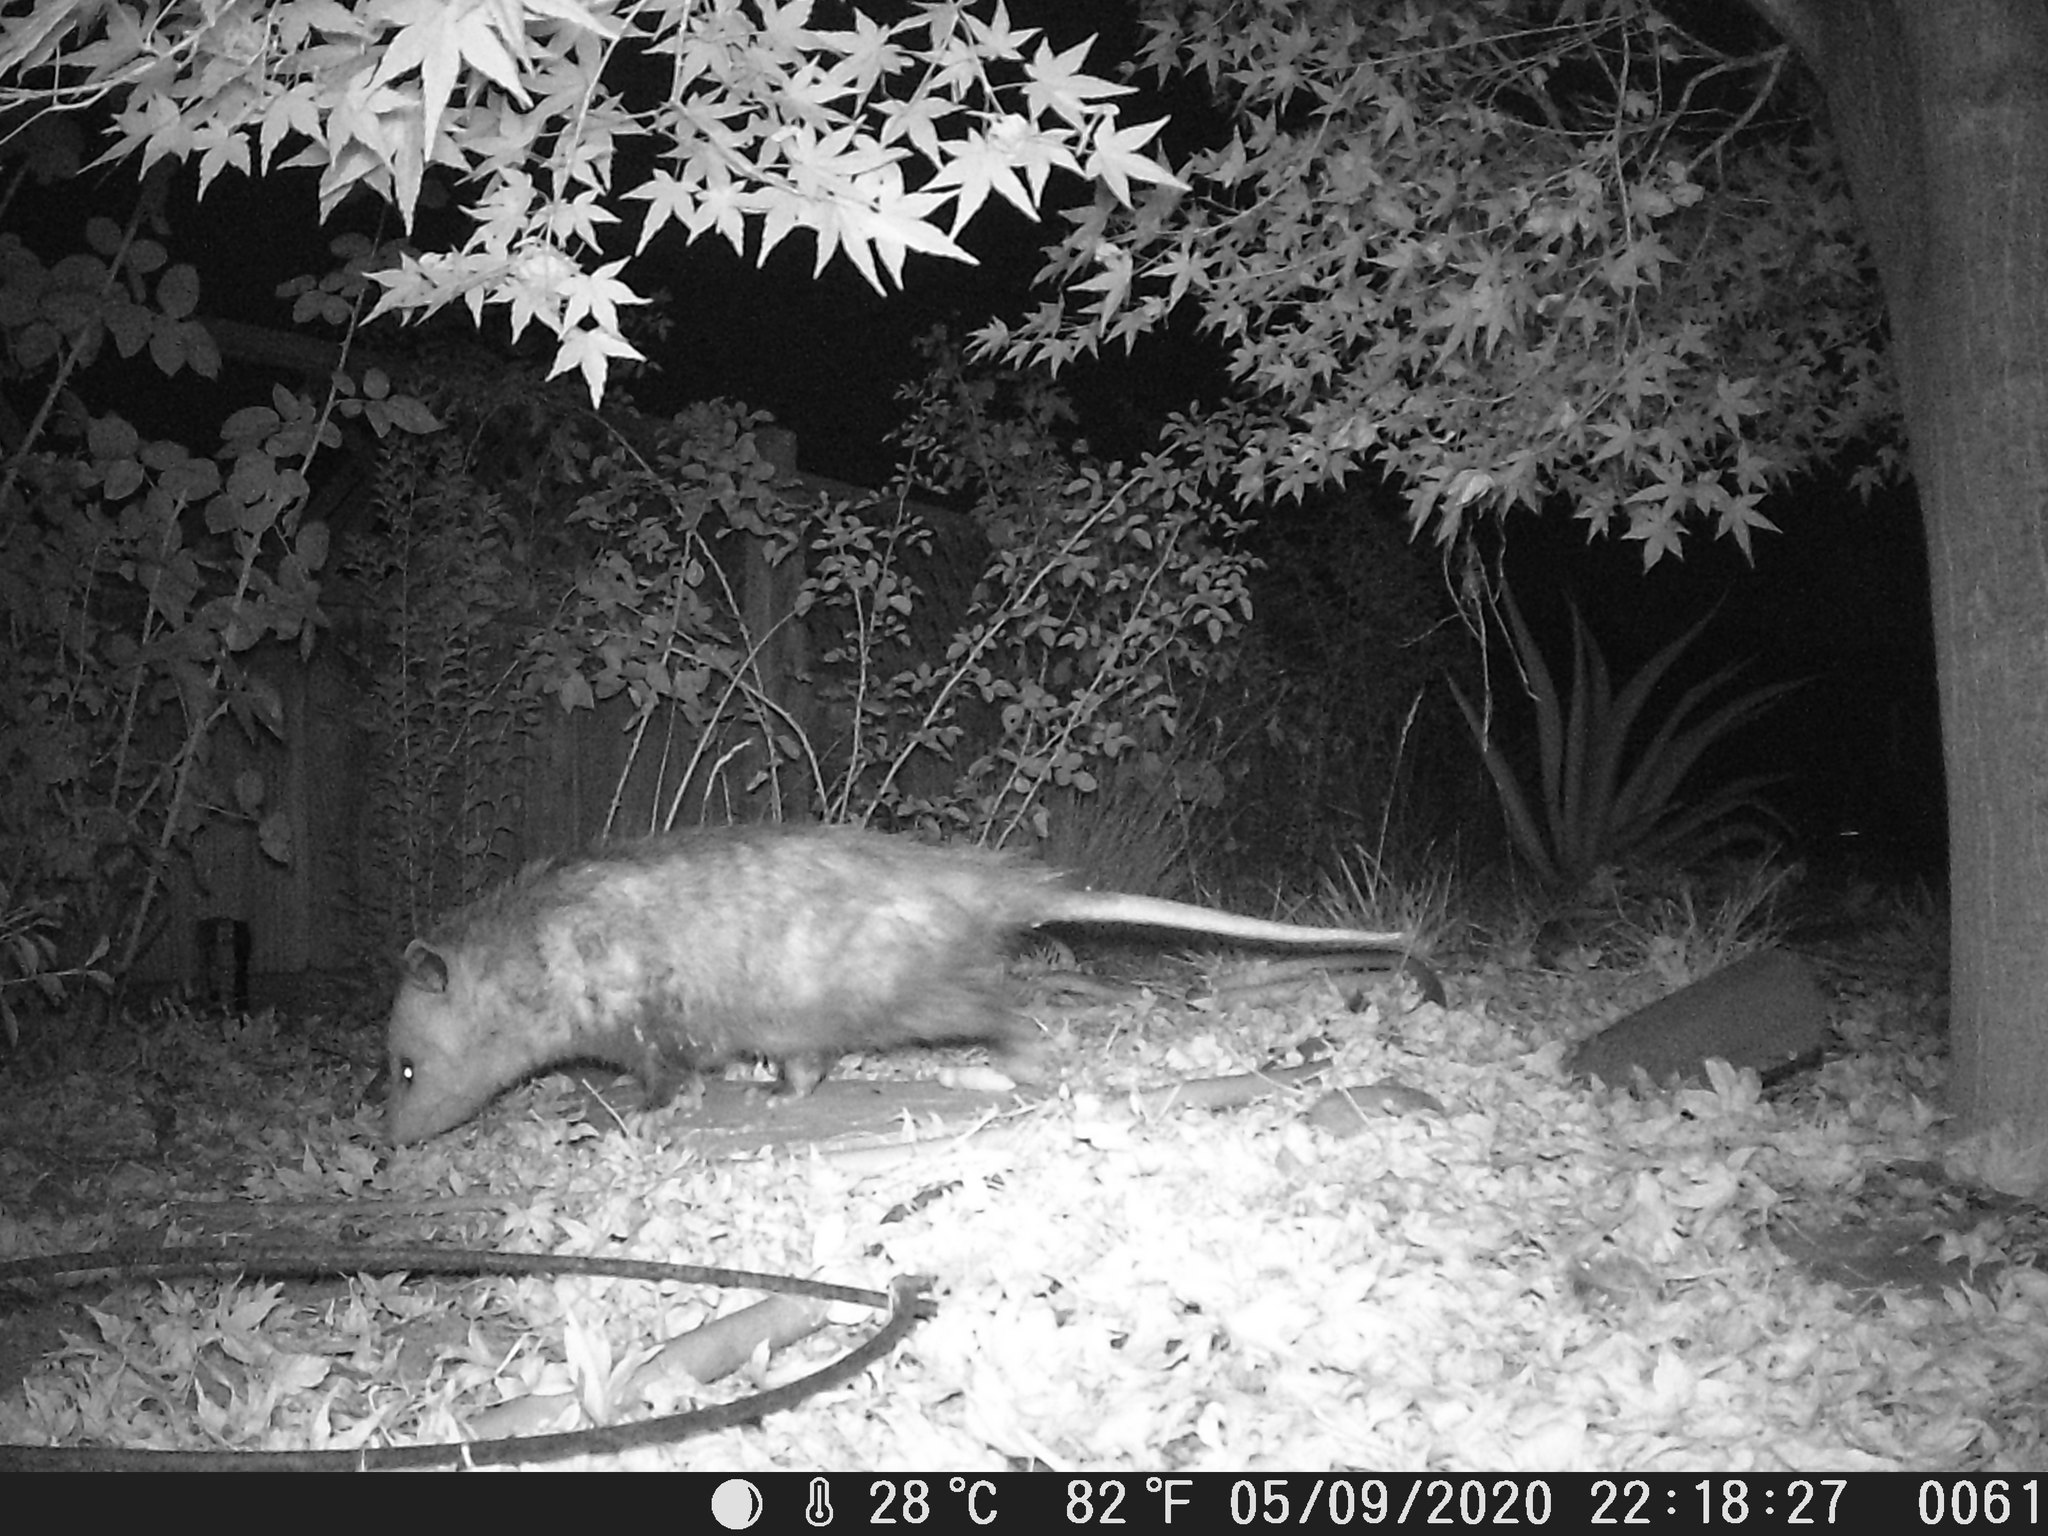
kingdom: Animalia
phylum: Chordata
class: Mammalia
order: Didelphimorphia
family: Didelphidae
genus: Didelphis
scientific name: Didelphis virginiana
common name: Virginia opossum
